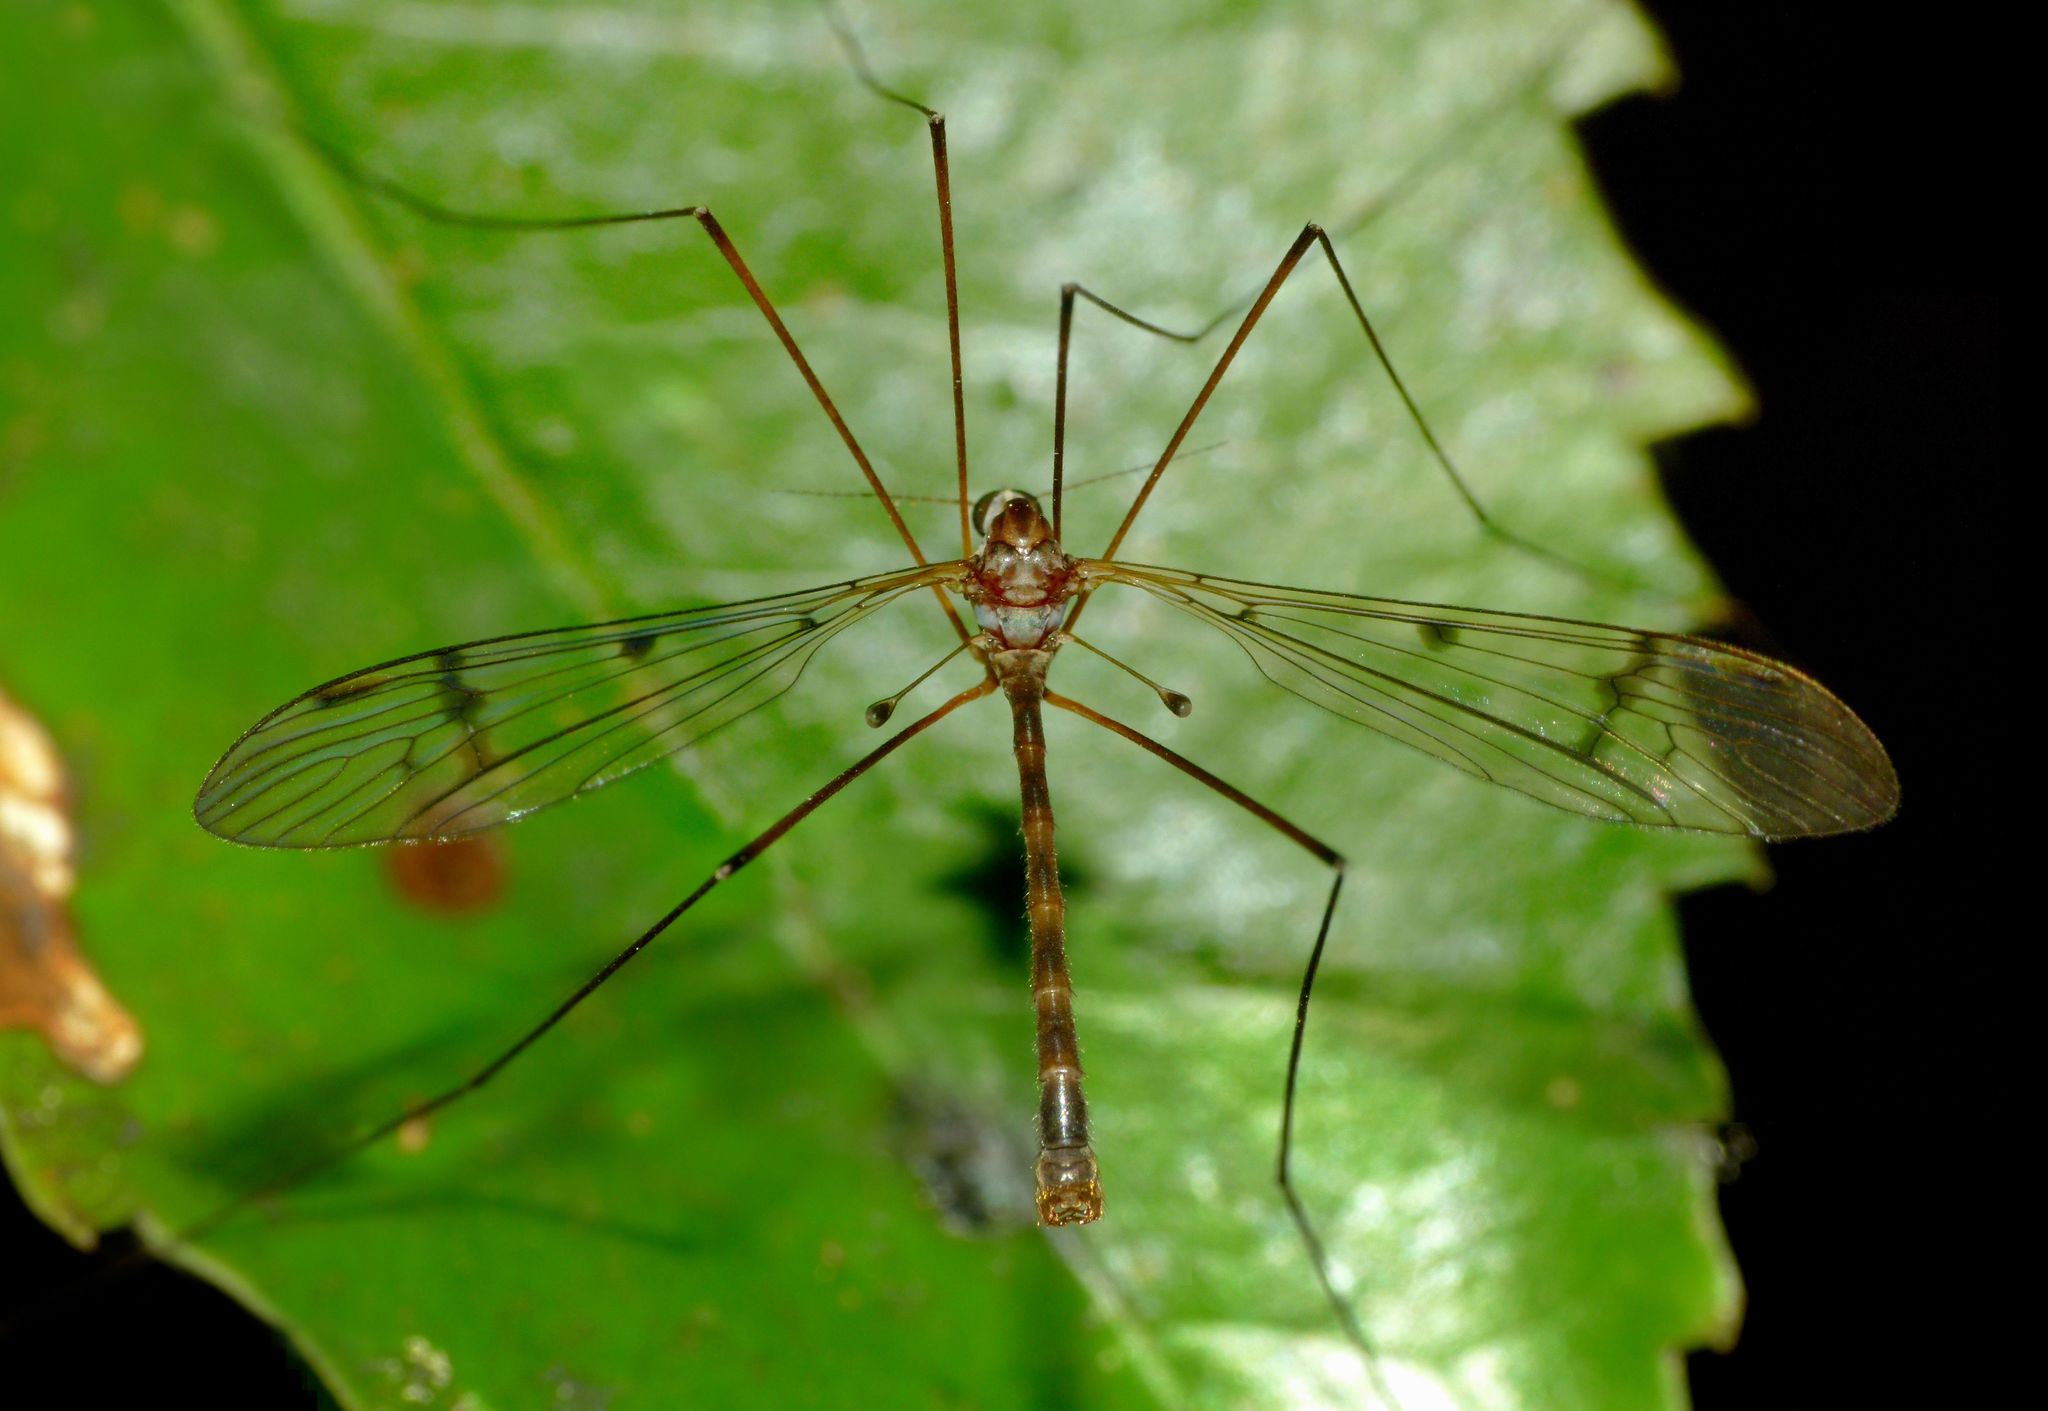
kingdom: Animalia
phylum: Arthropoda
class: Insecta
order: Diptera
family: Limoniidae
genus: Limnophilella
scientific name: Limnophilella serotina
